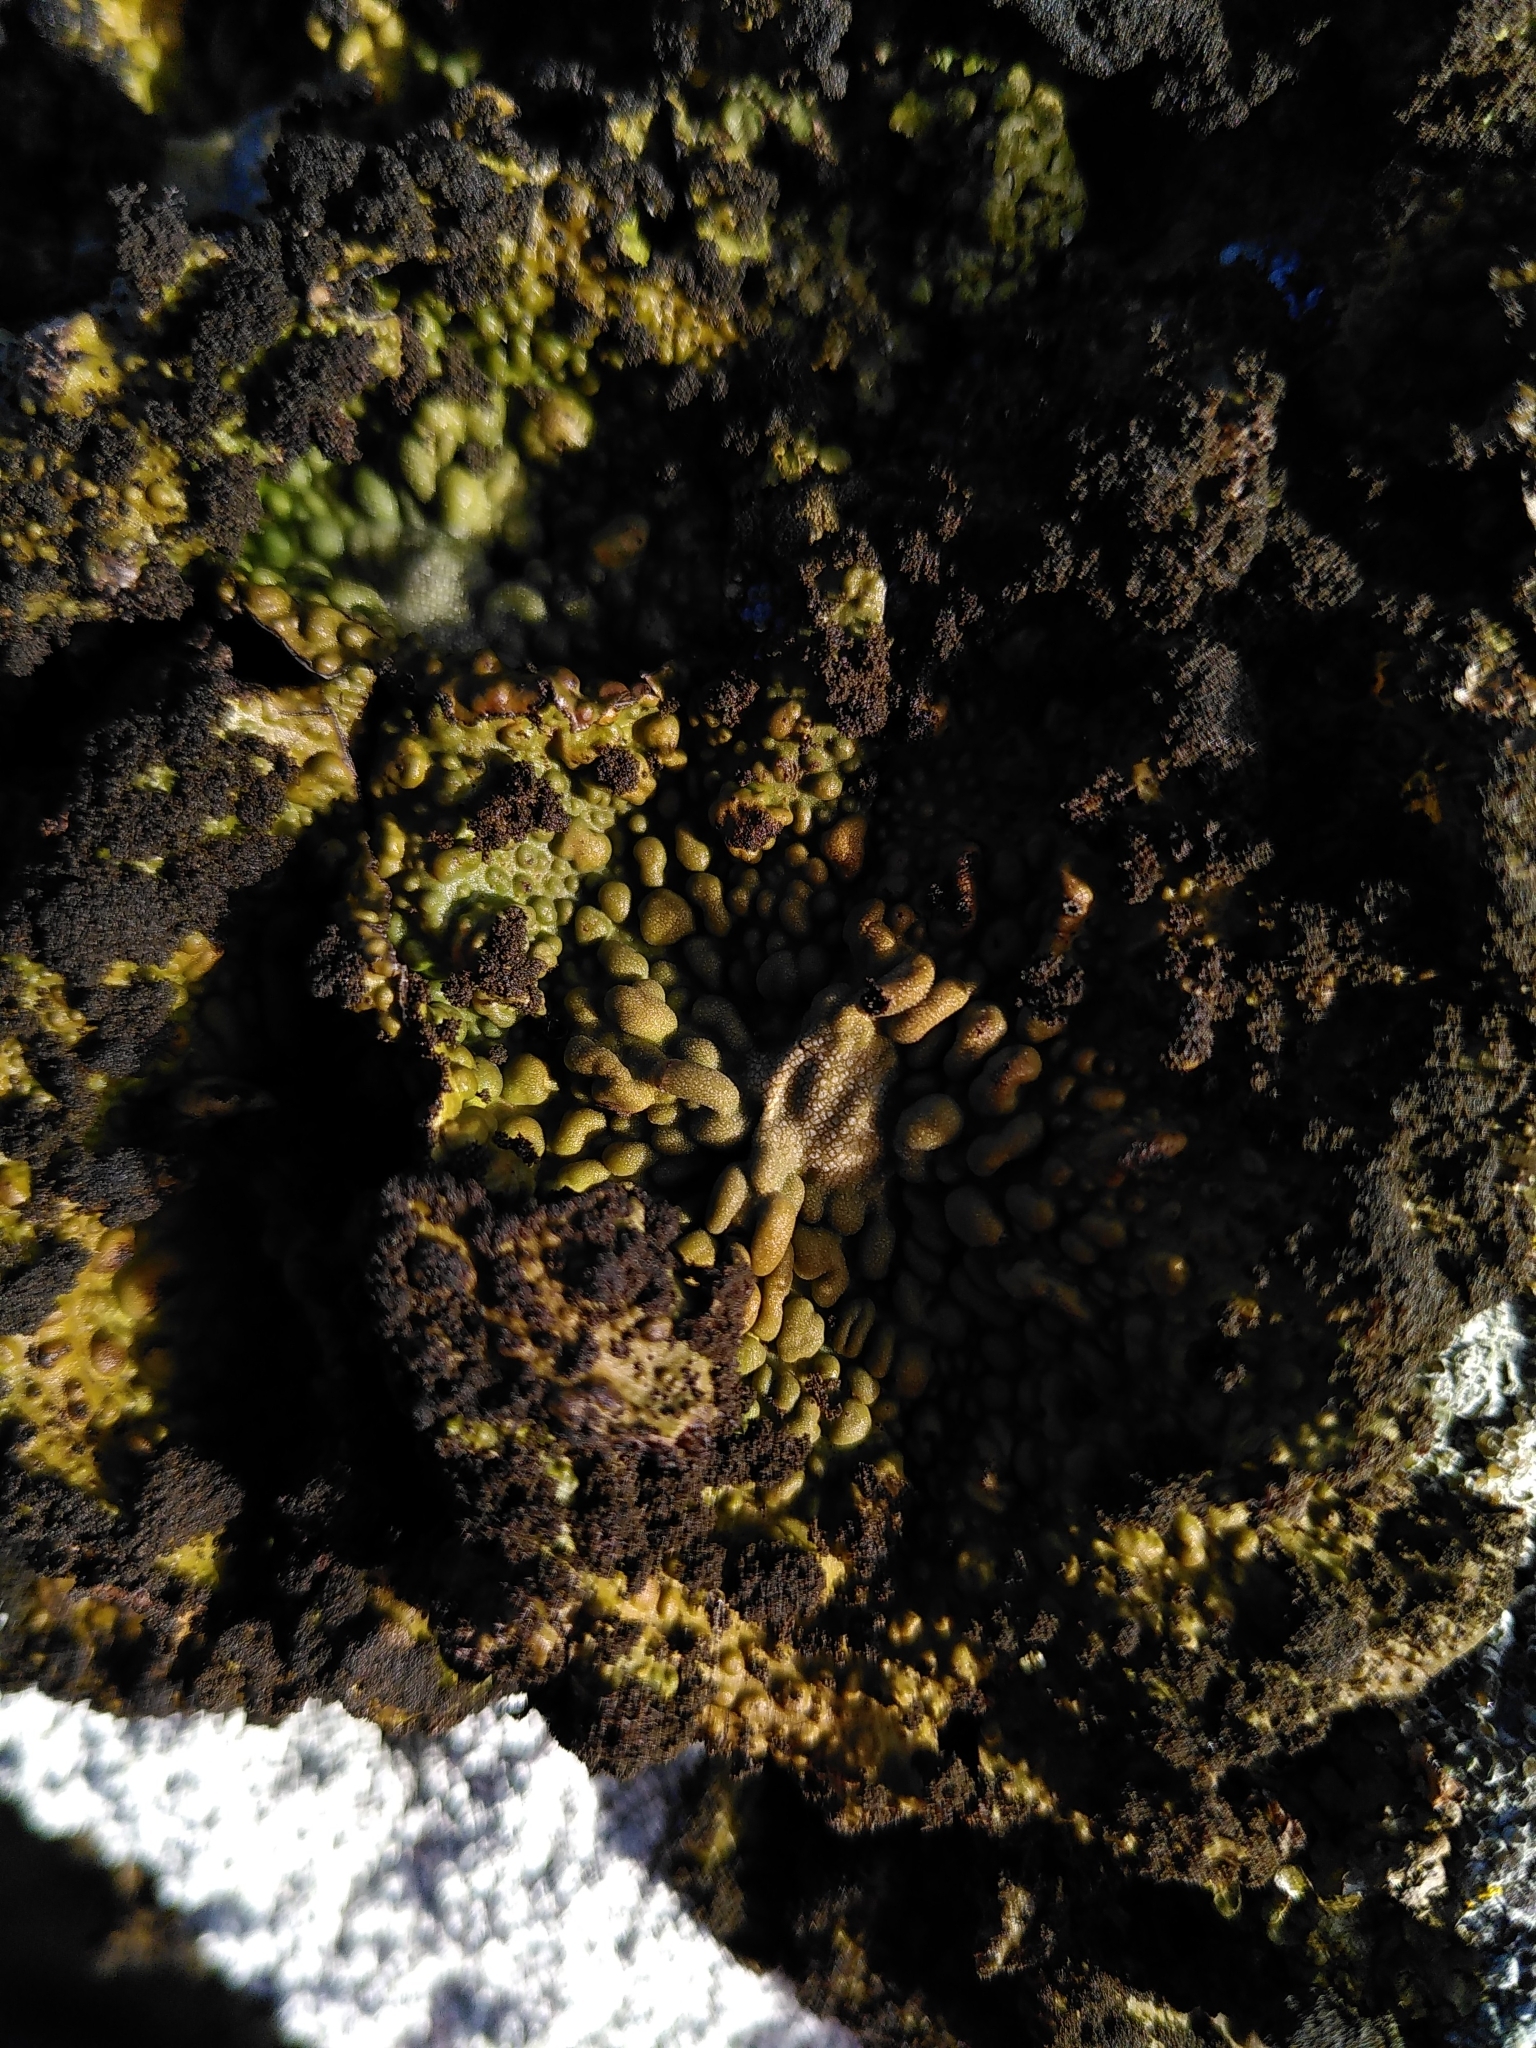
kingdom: Fungi
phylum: Ascomycota
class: Lecanoromycetes
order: Umbilicariales
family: Umbilicariaceae
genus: Lasallia
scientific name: Lasallia pustulata
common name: Blistered toadskin lichen
